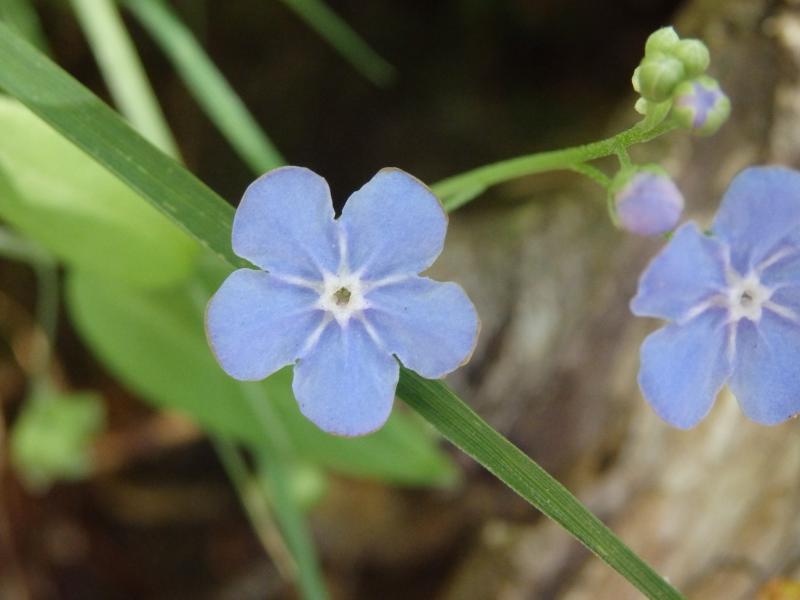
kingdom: Plantae
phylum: Tracheophyta
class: Magnoliopsida
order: Boraginales
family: Boraginaceae
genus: Omphalodes
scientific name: Omphalodes nitida
